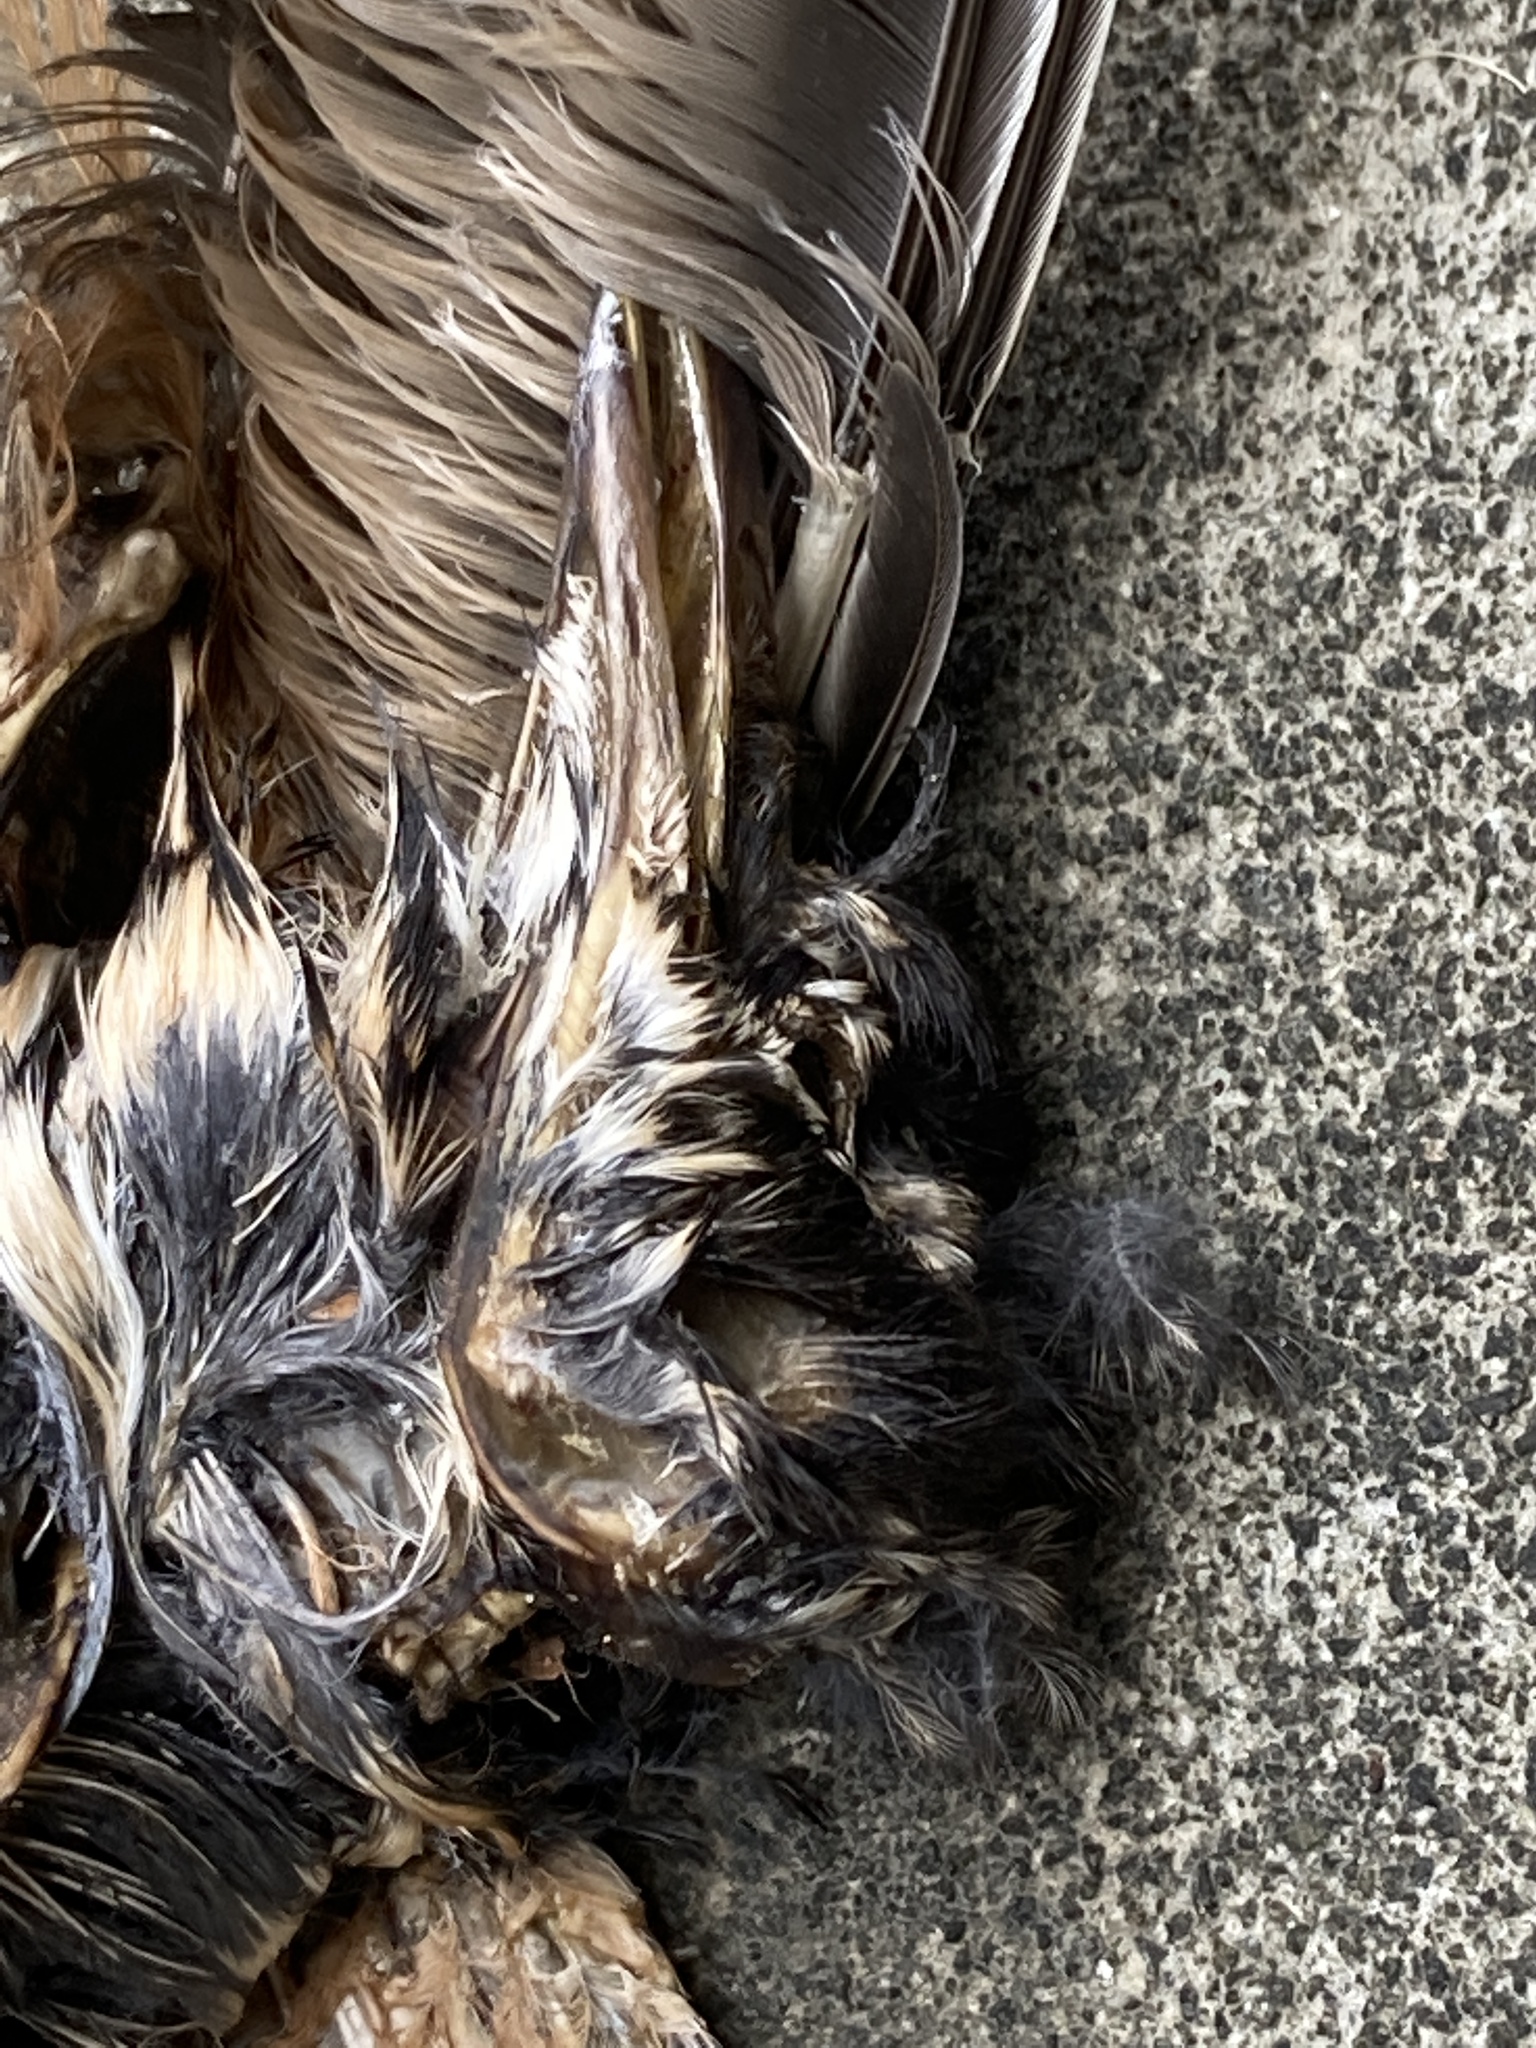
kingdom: Animalia
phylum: Chordata
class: Aves
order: Passeriformes
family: Turdidae
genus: Turdus
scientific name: Turdus migratorius
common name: American robin
